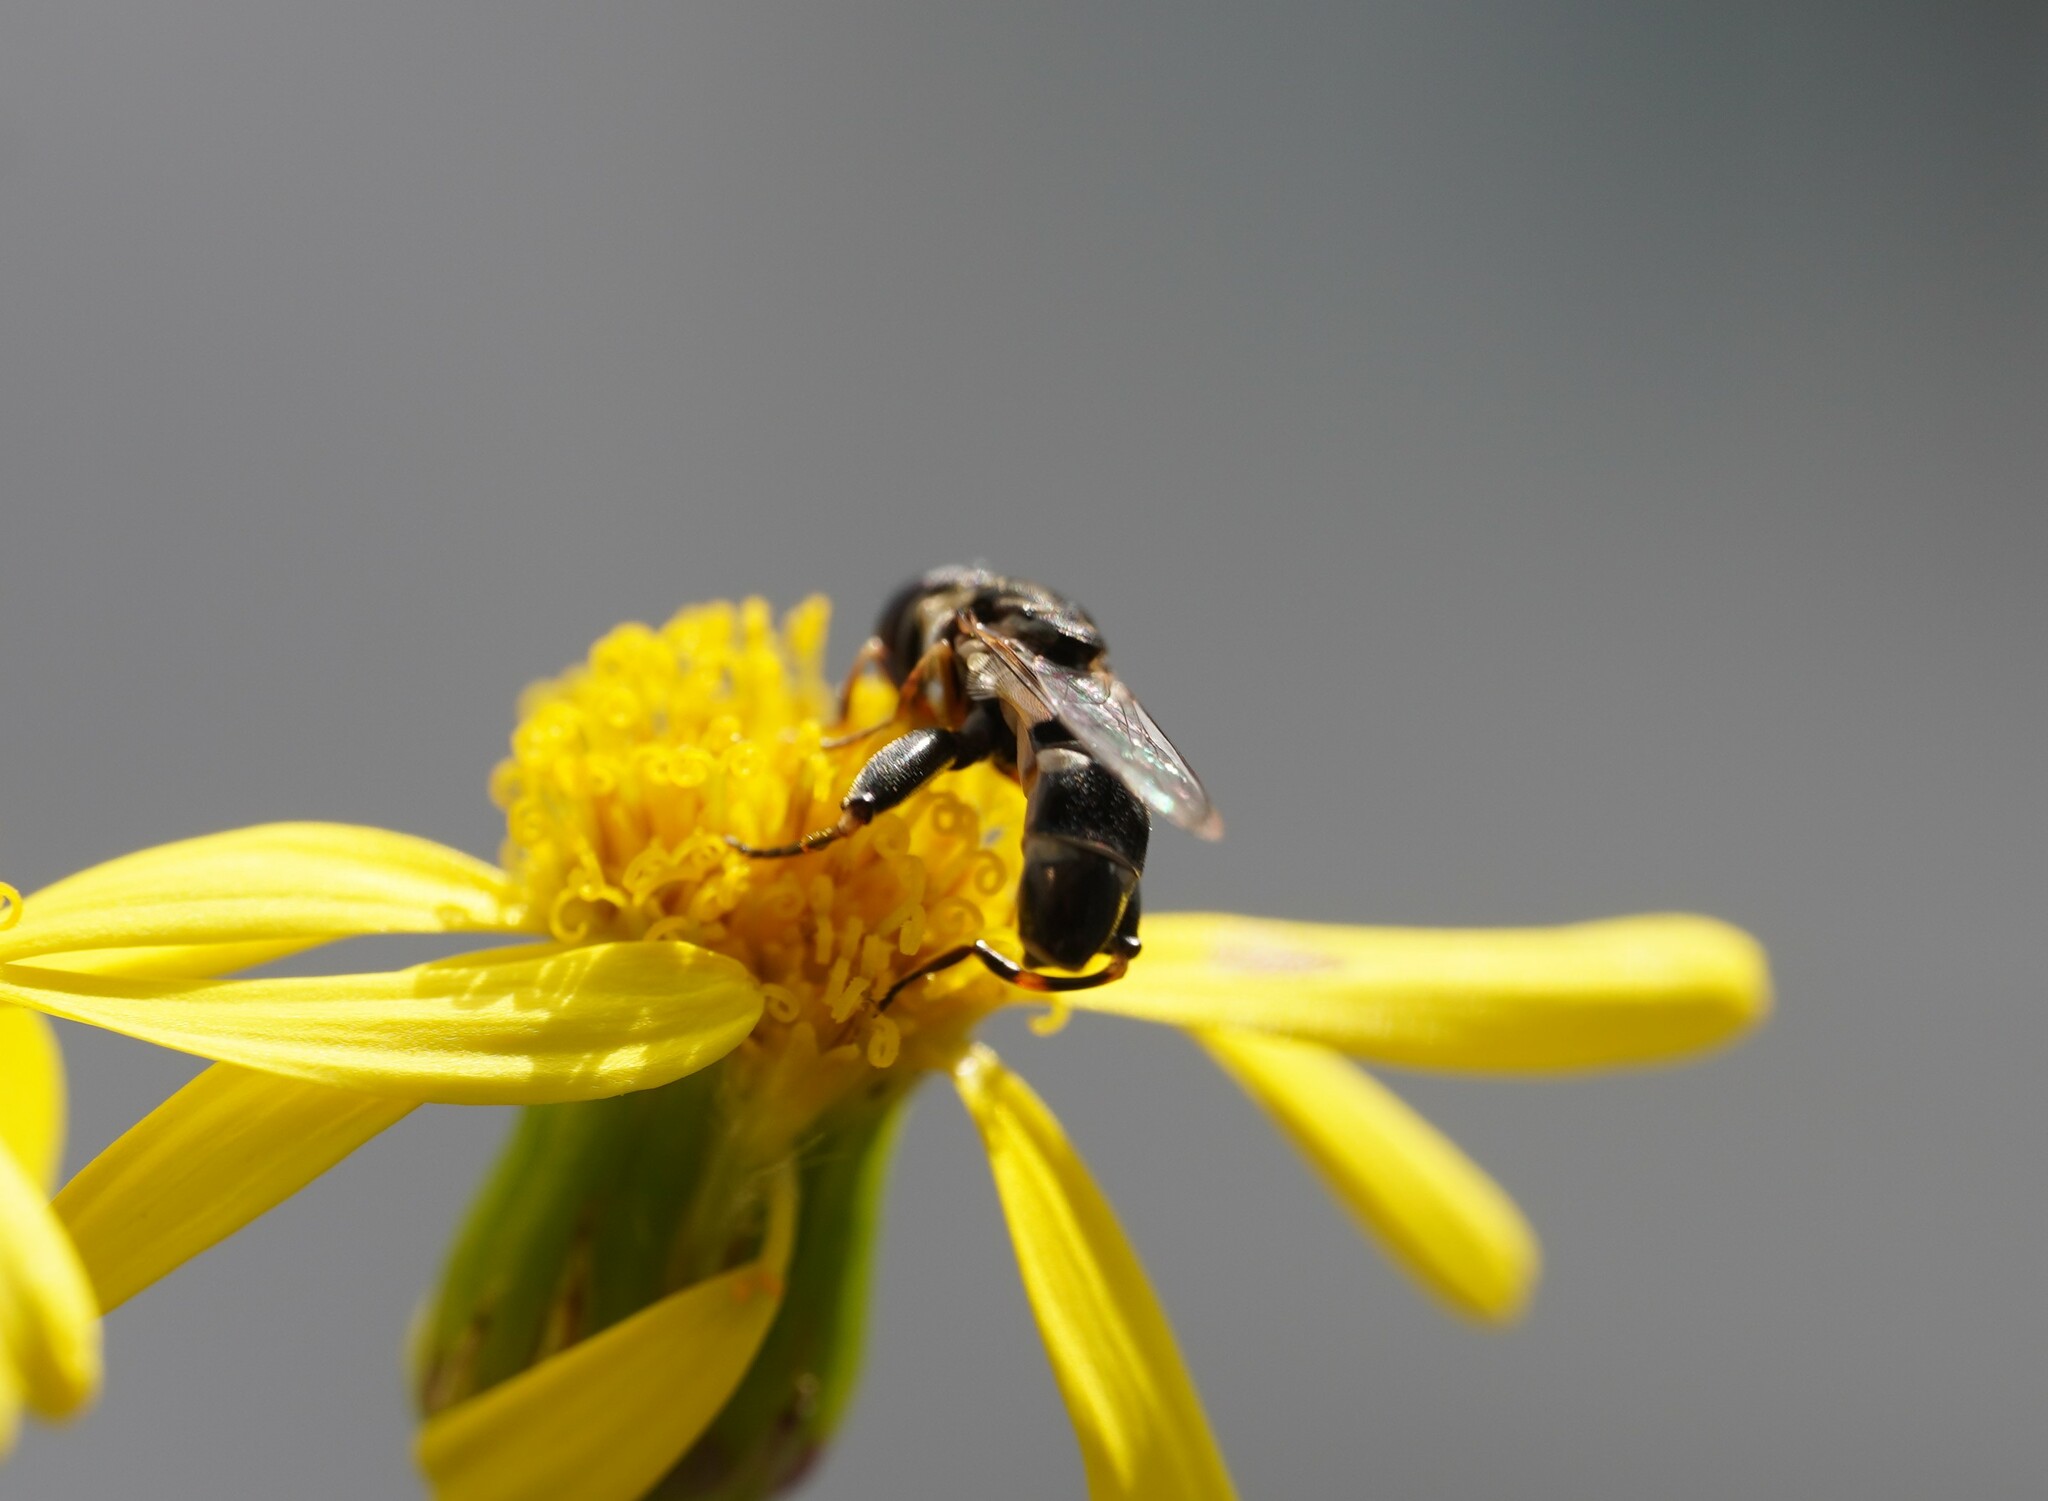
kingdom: Animalia
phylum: Arthropoda
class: Insecta
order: Diptera
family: Syrphidae
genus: Syritta
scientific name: Syritta pipiens
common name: Hover fly
